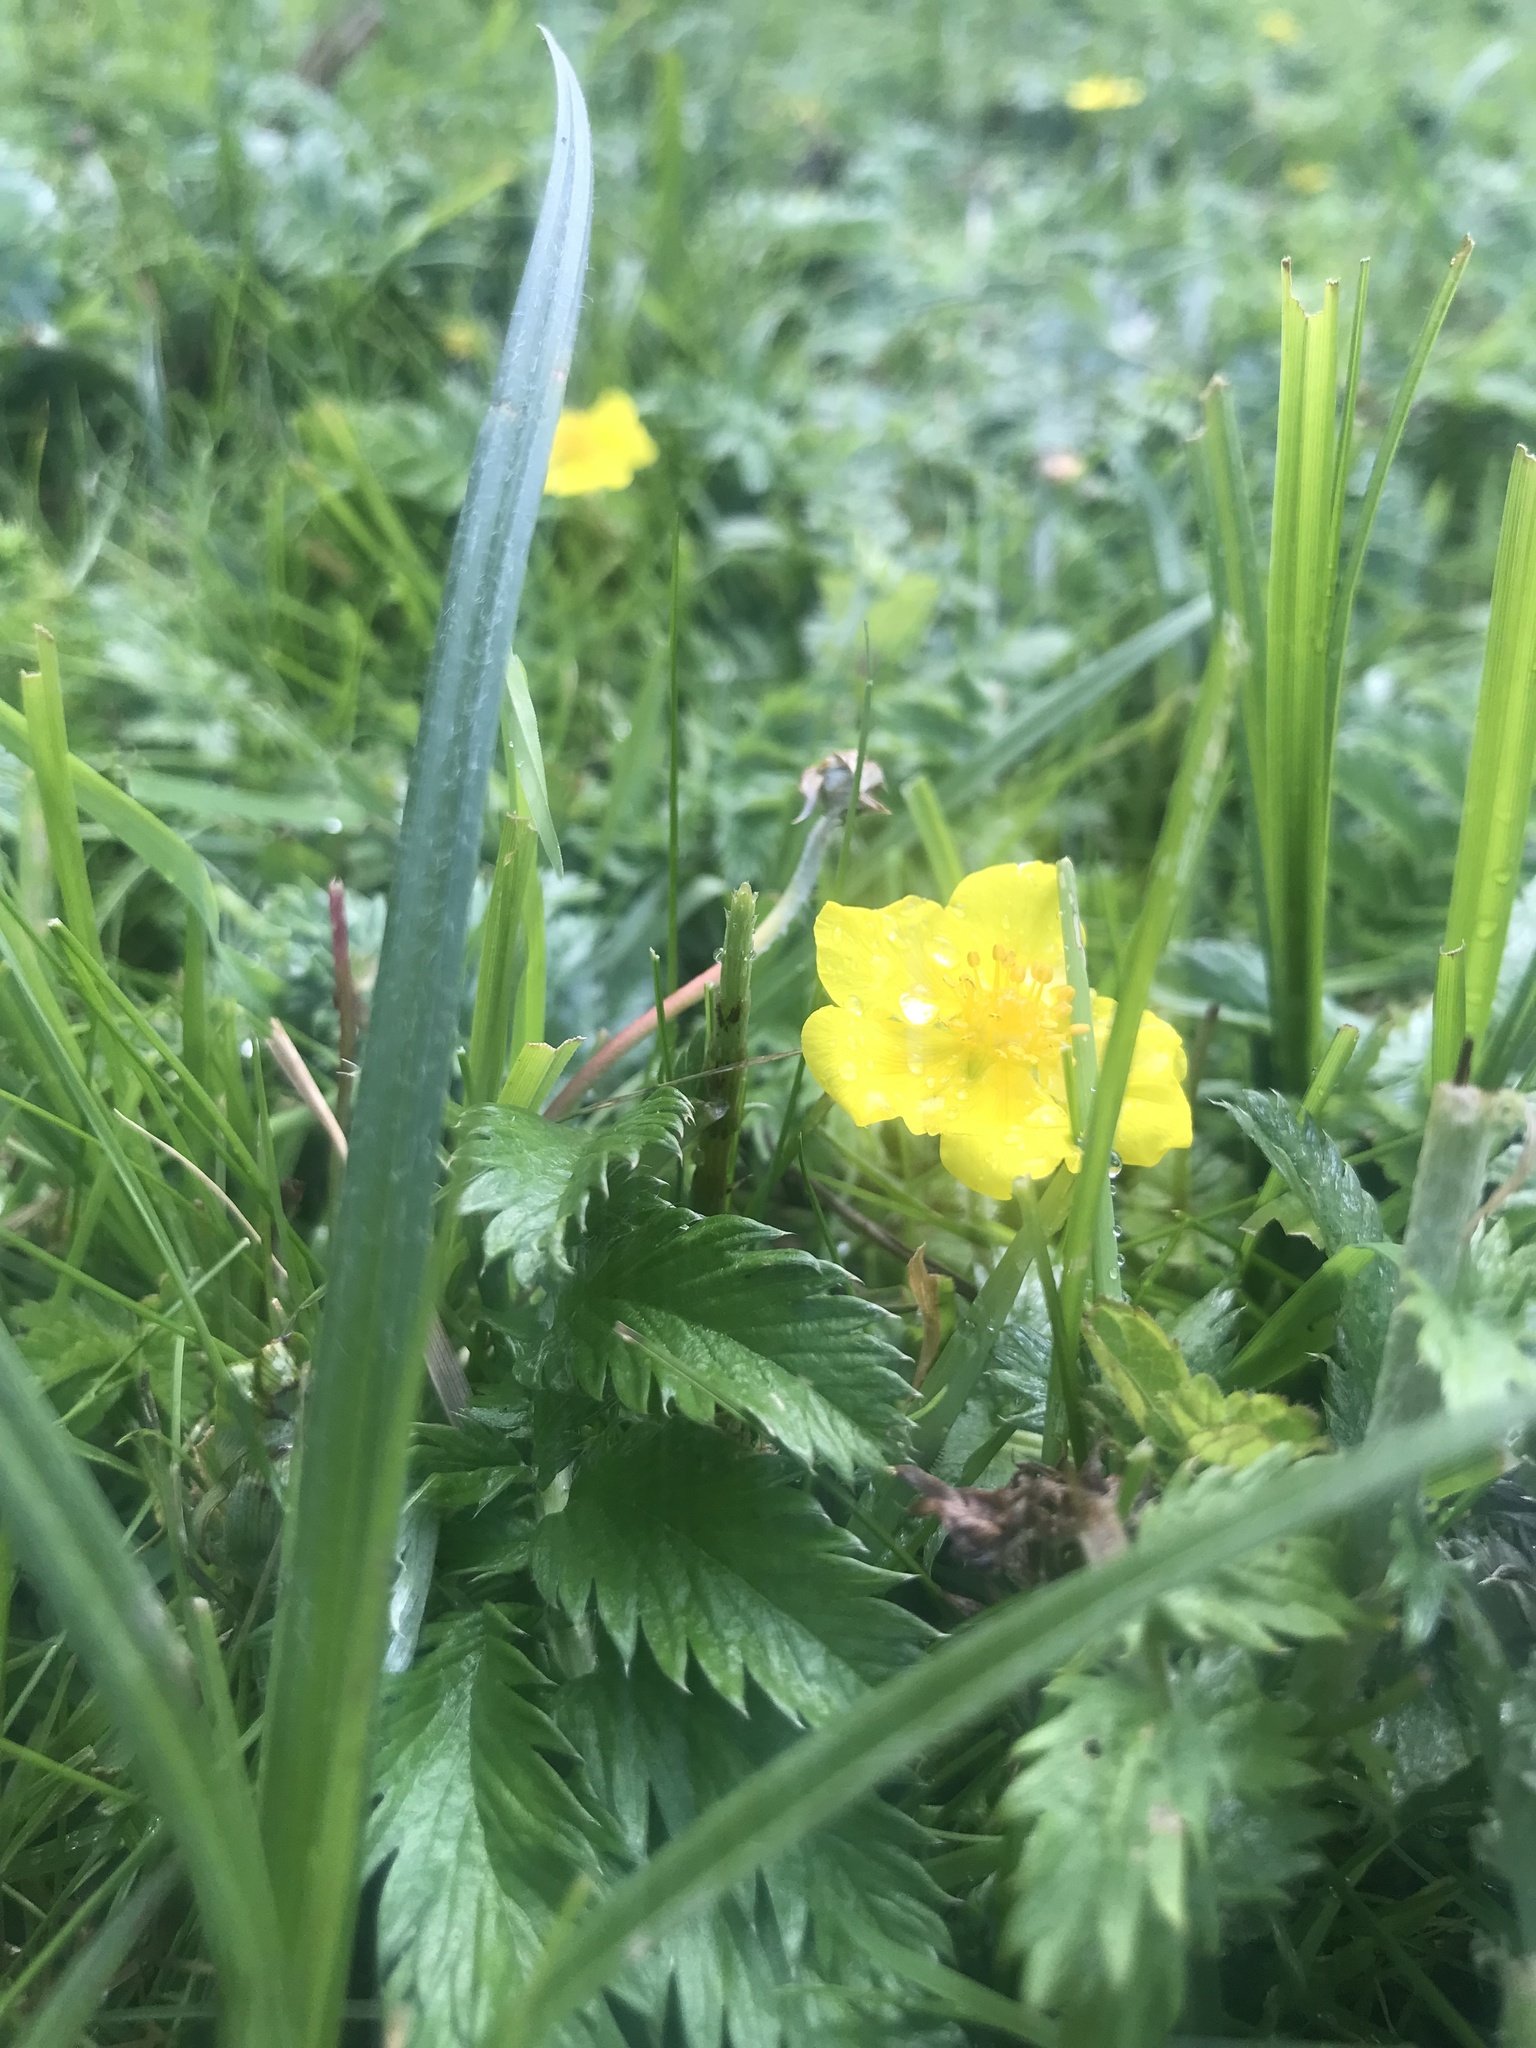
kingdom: Plantae
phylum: Tracheophyta
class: Magnoliopsida
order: Rosales
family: Rosaceae
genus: Argentina
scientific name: Argentina anserina
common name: Common silverweed
